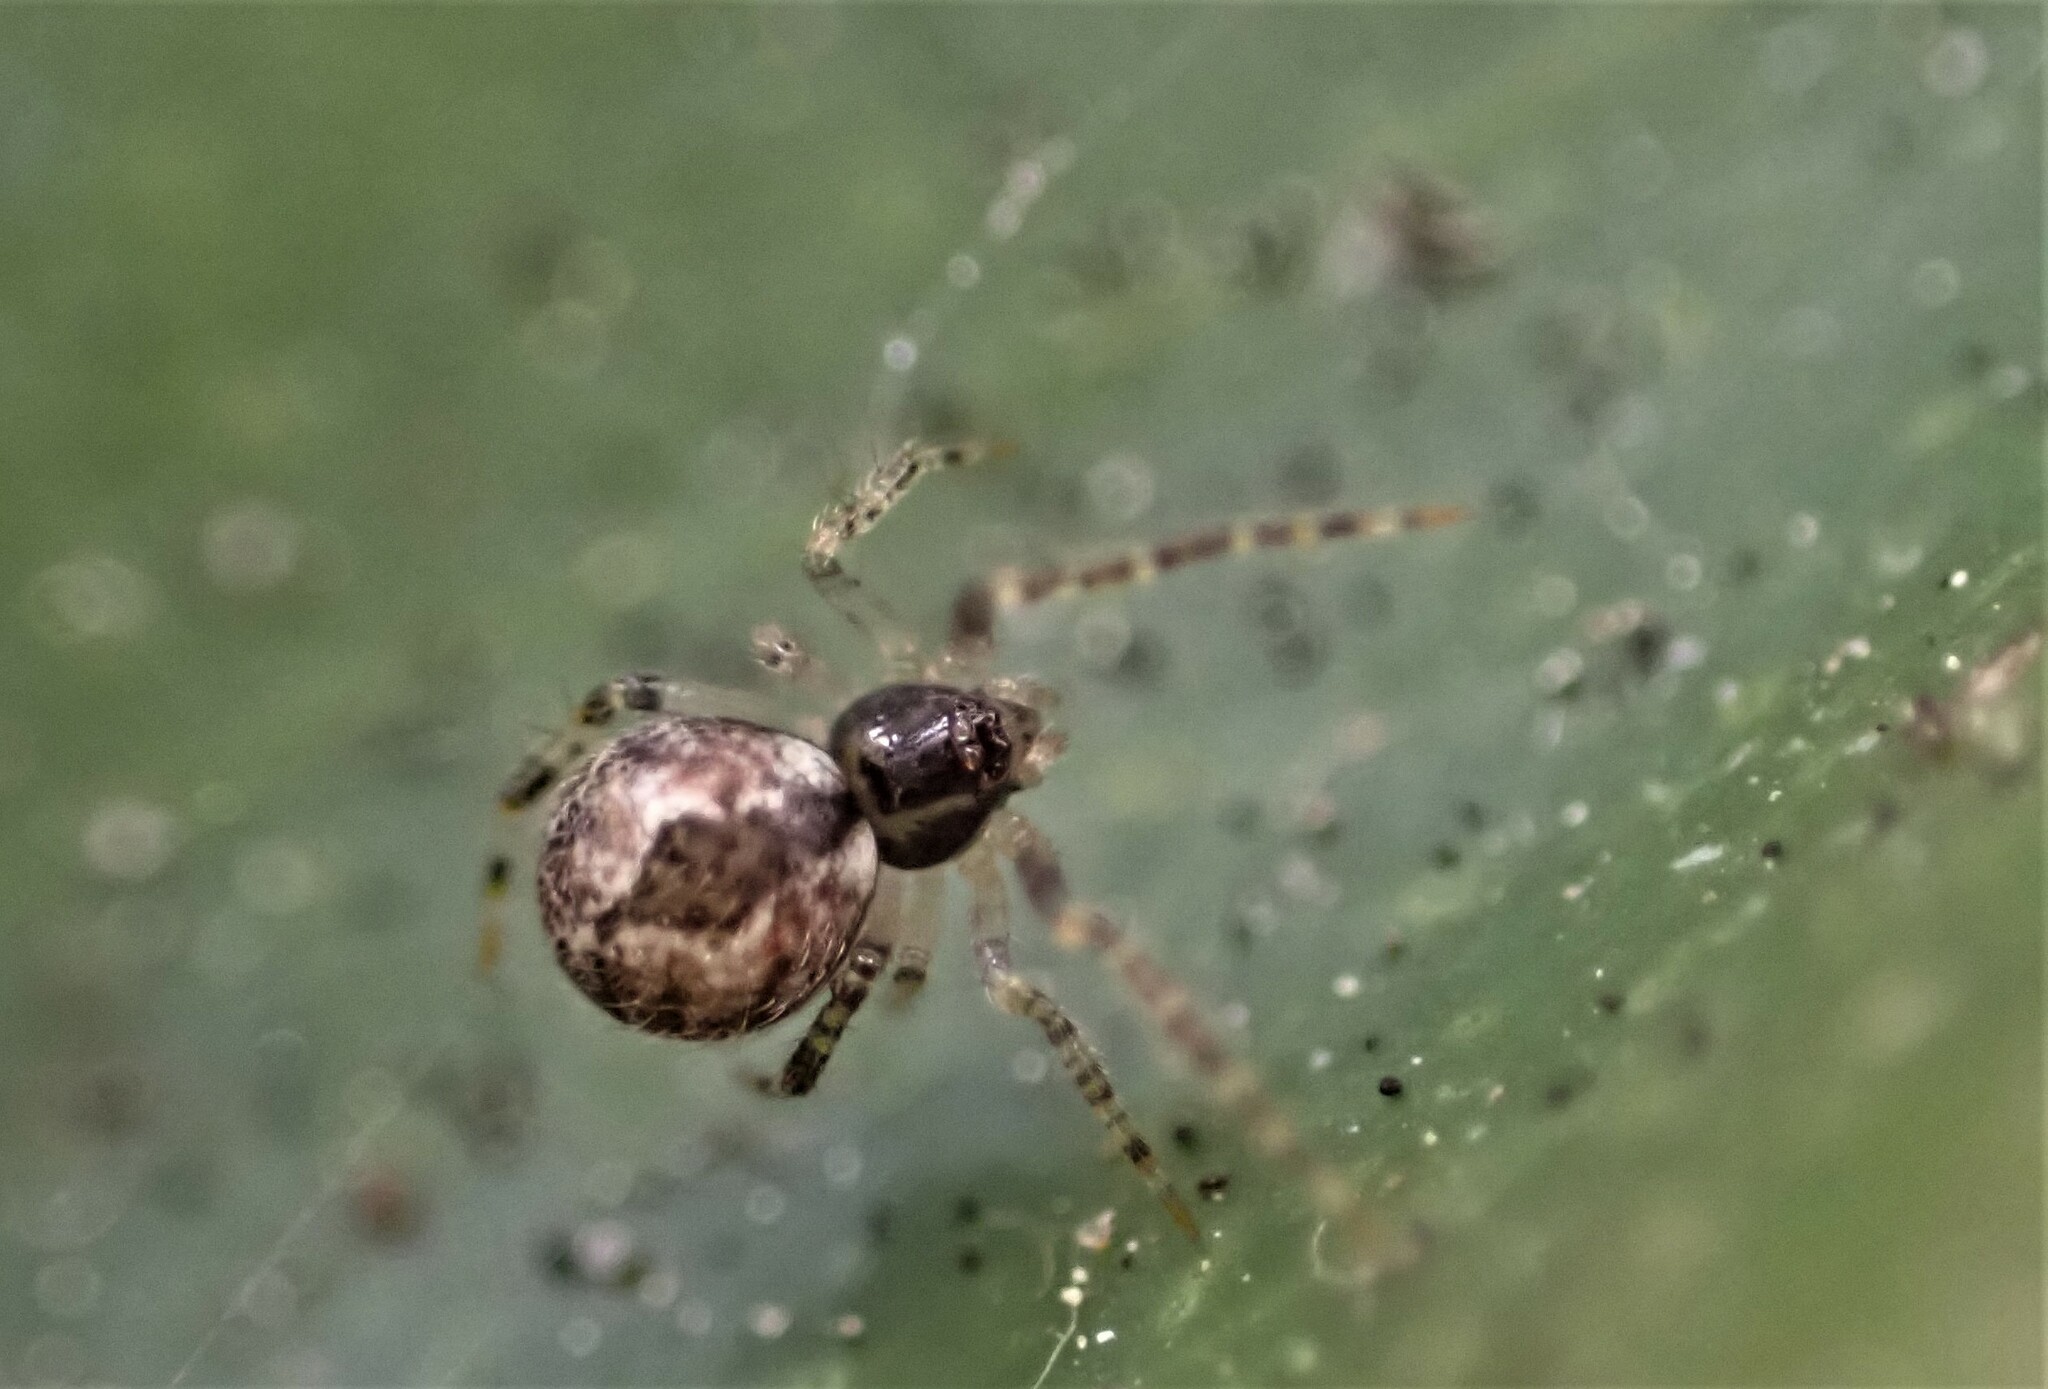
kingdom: Animalia
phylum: Arthropoda
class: Arachnida
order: Araneae
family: Theridiidae
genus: Cryptachaea
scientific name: Cryptachaea veruculata
